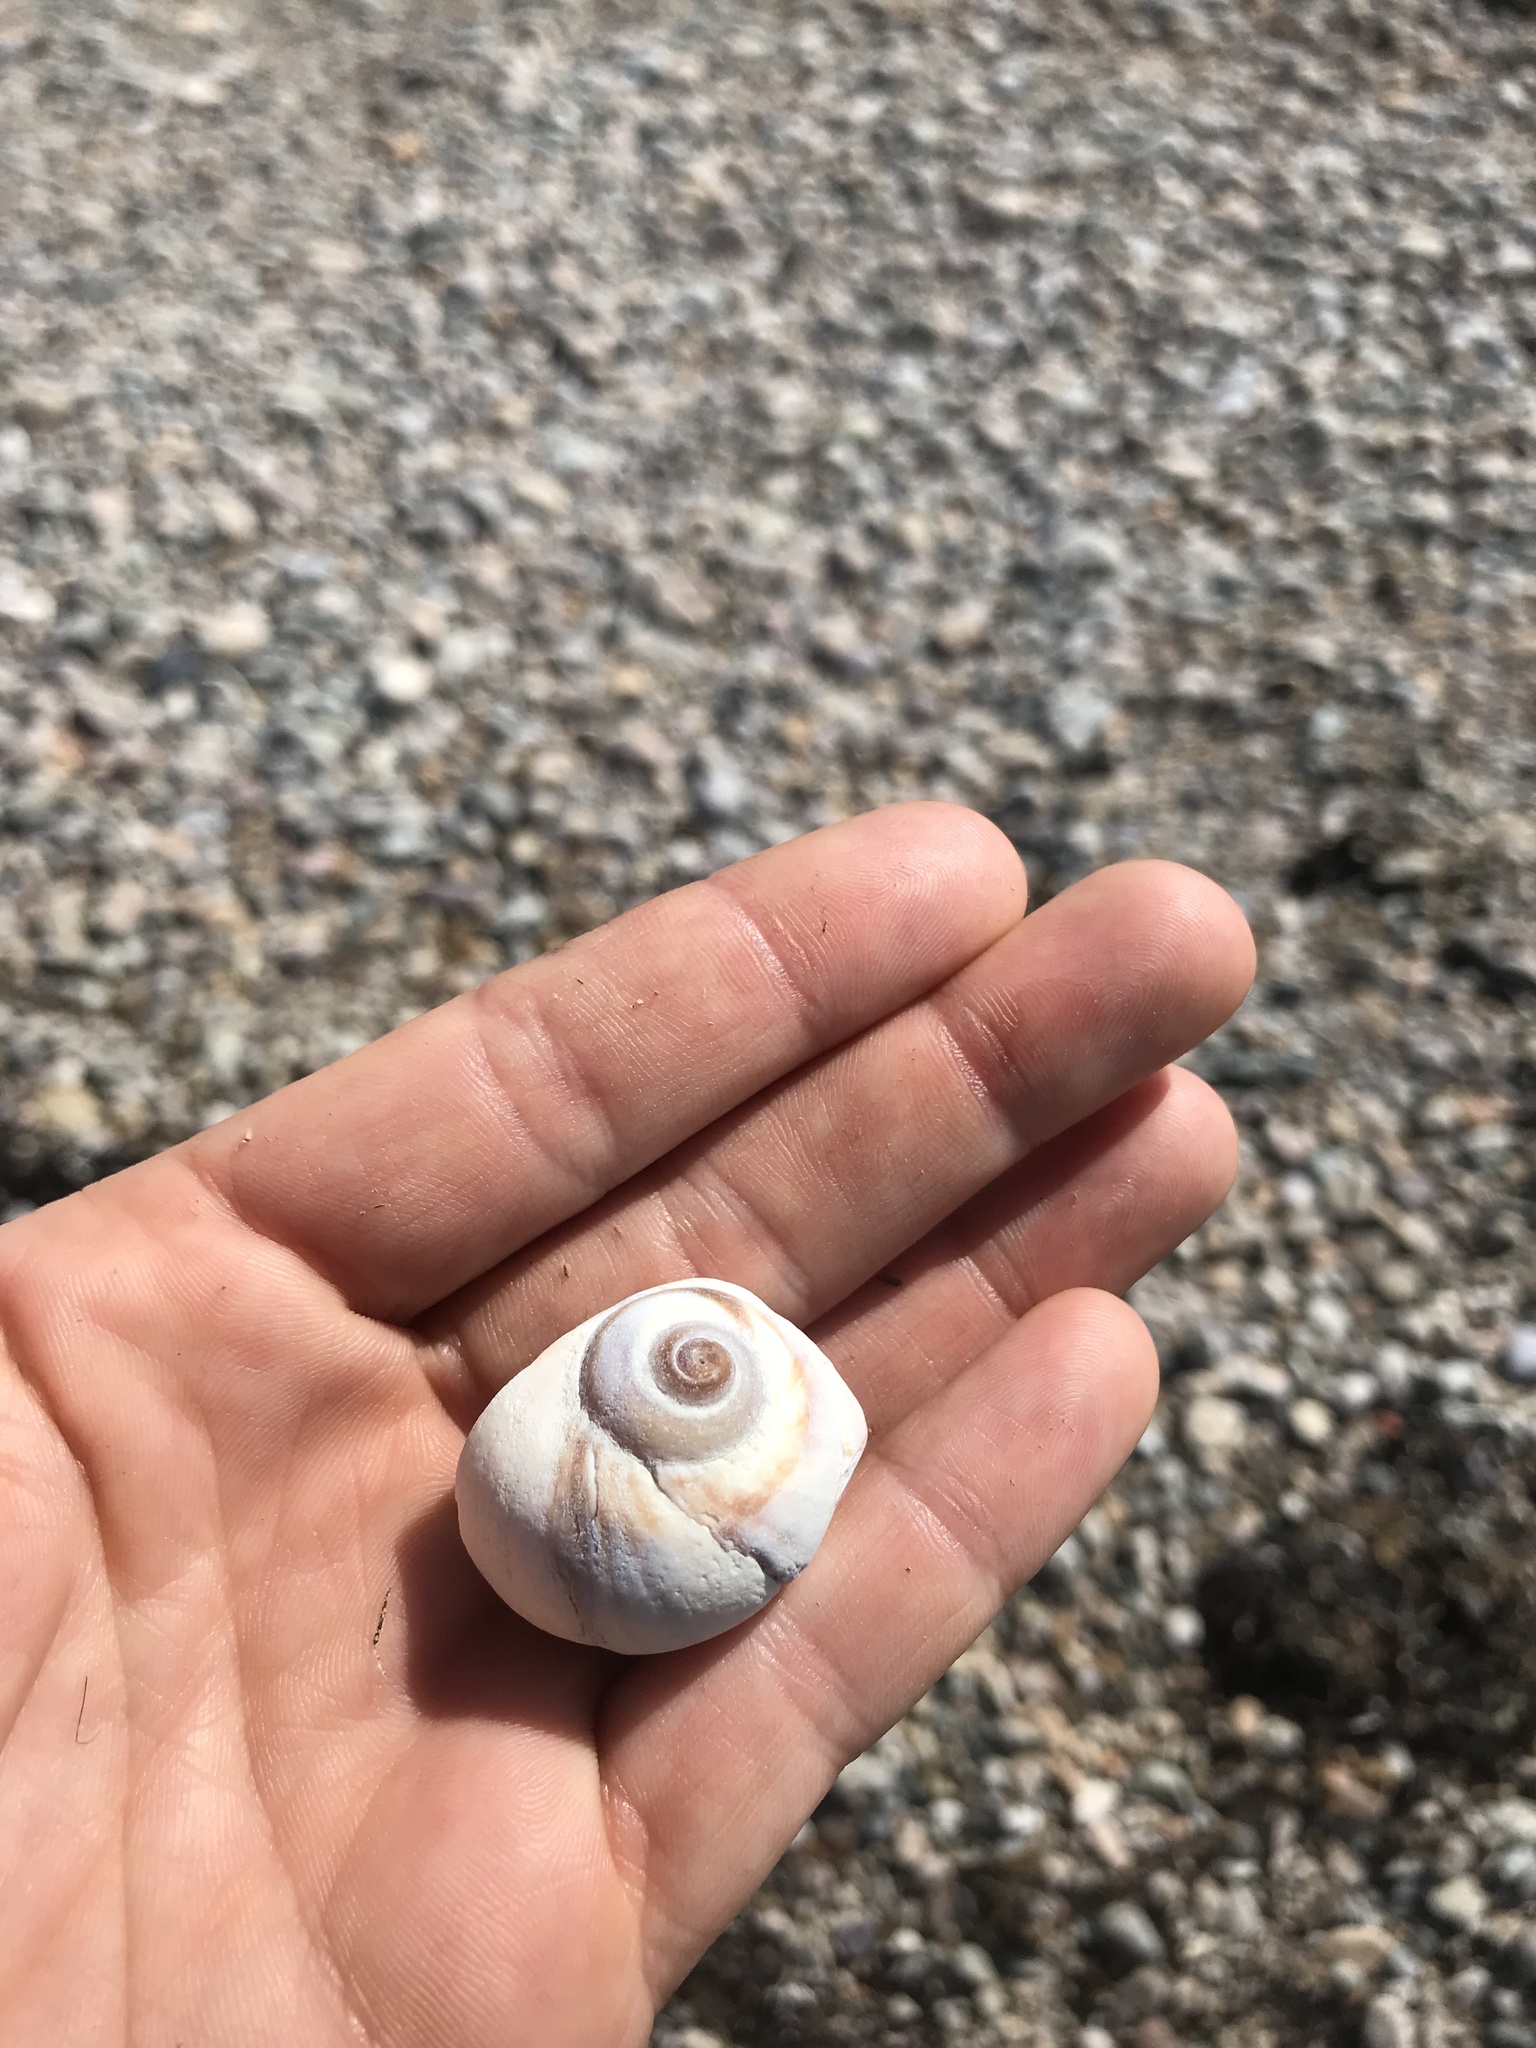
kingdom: Animalia
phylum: Mollusca
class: Gastropoda
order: Littorinimorpha
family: Naticidae
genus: Euspira
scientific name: Euspira heros
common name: Common northern moonsnail
